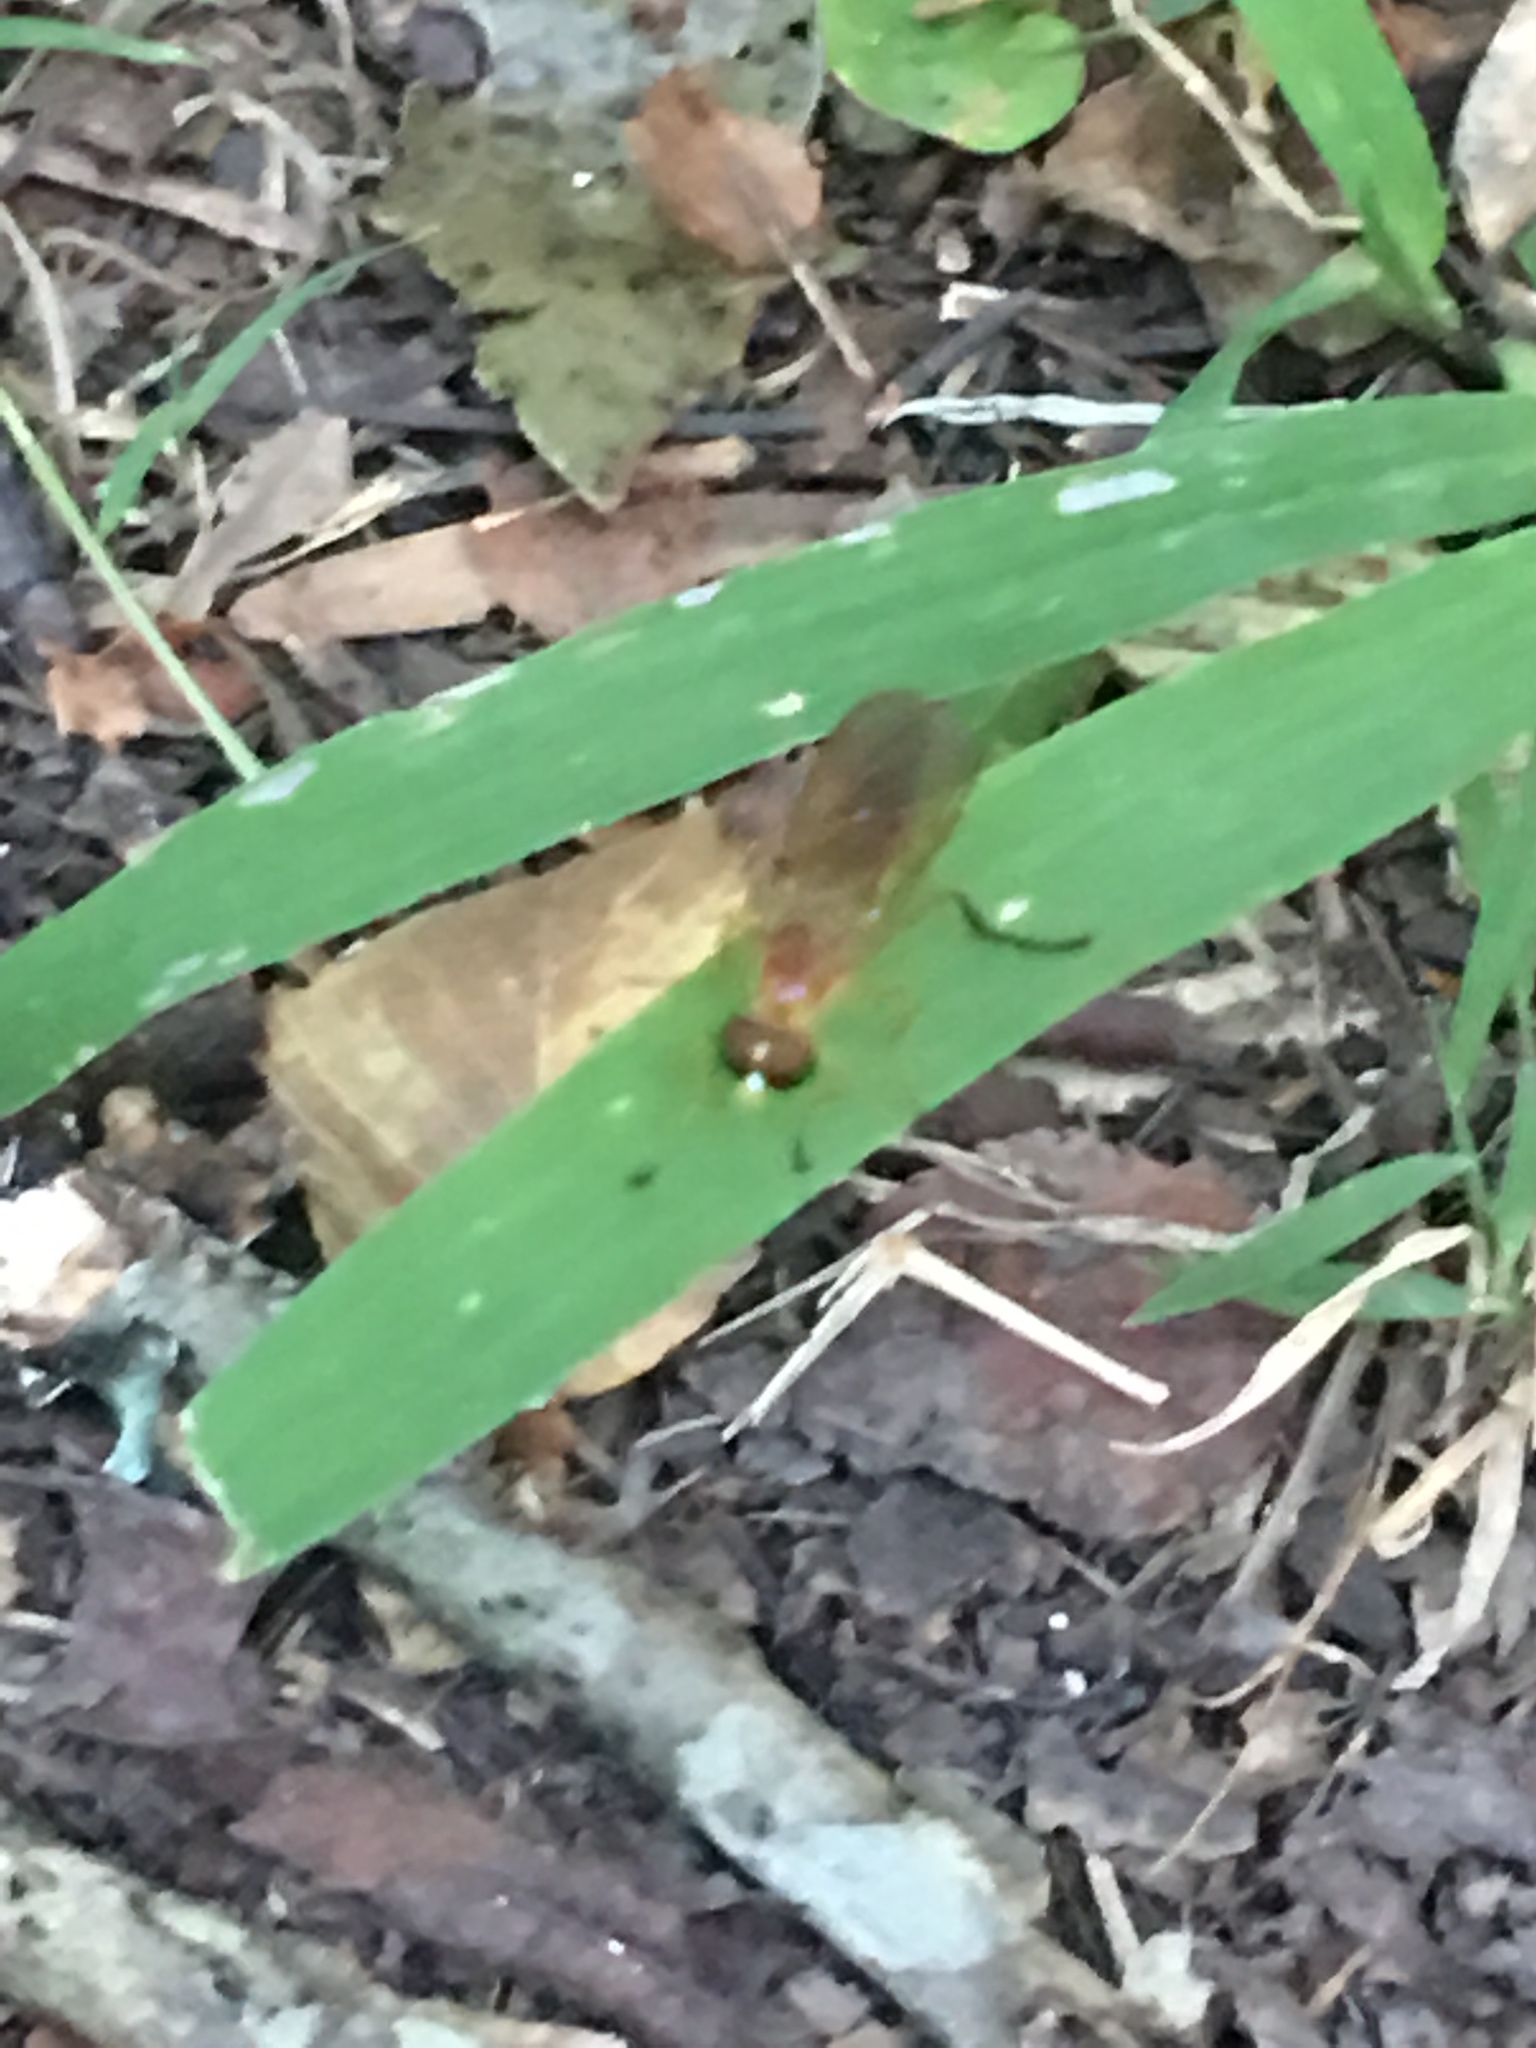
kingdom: Animalia
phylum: Arthropoda
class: Insecta
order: Diptera
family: Stratiomyidae
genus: Ptecticus
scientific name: Ptecticus trivittatus
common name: Compost fly
